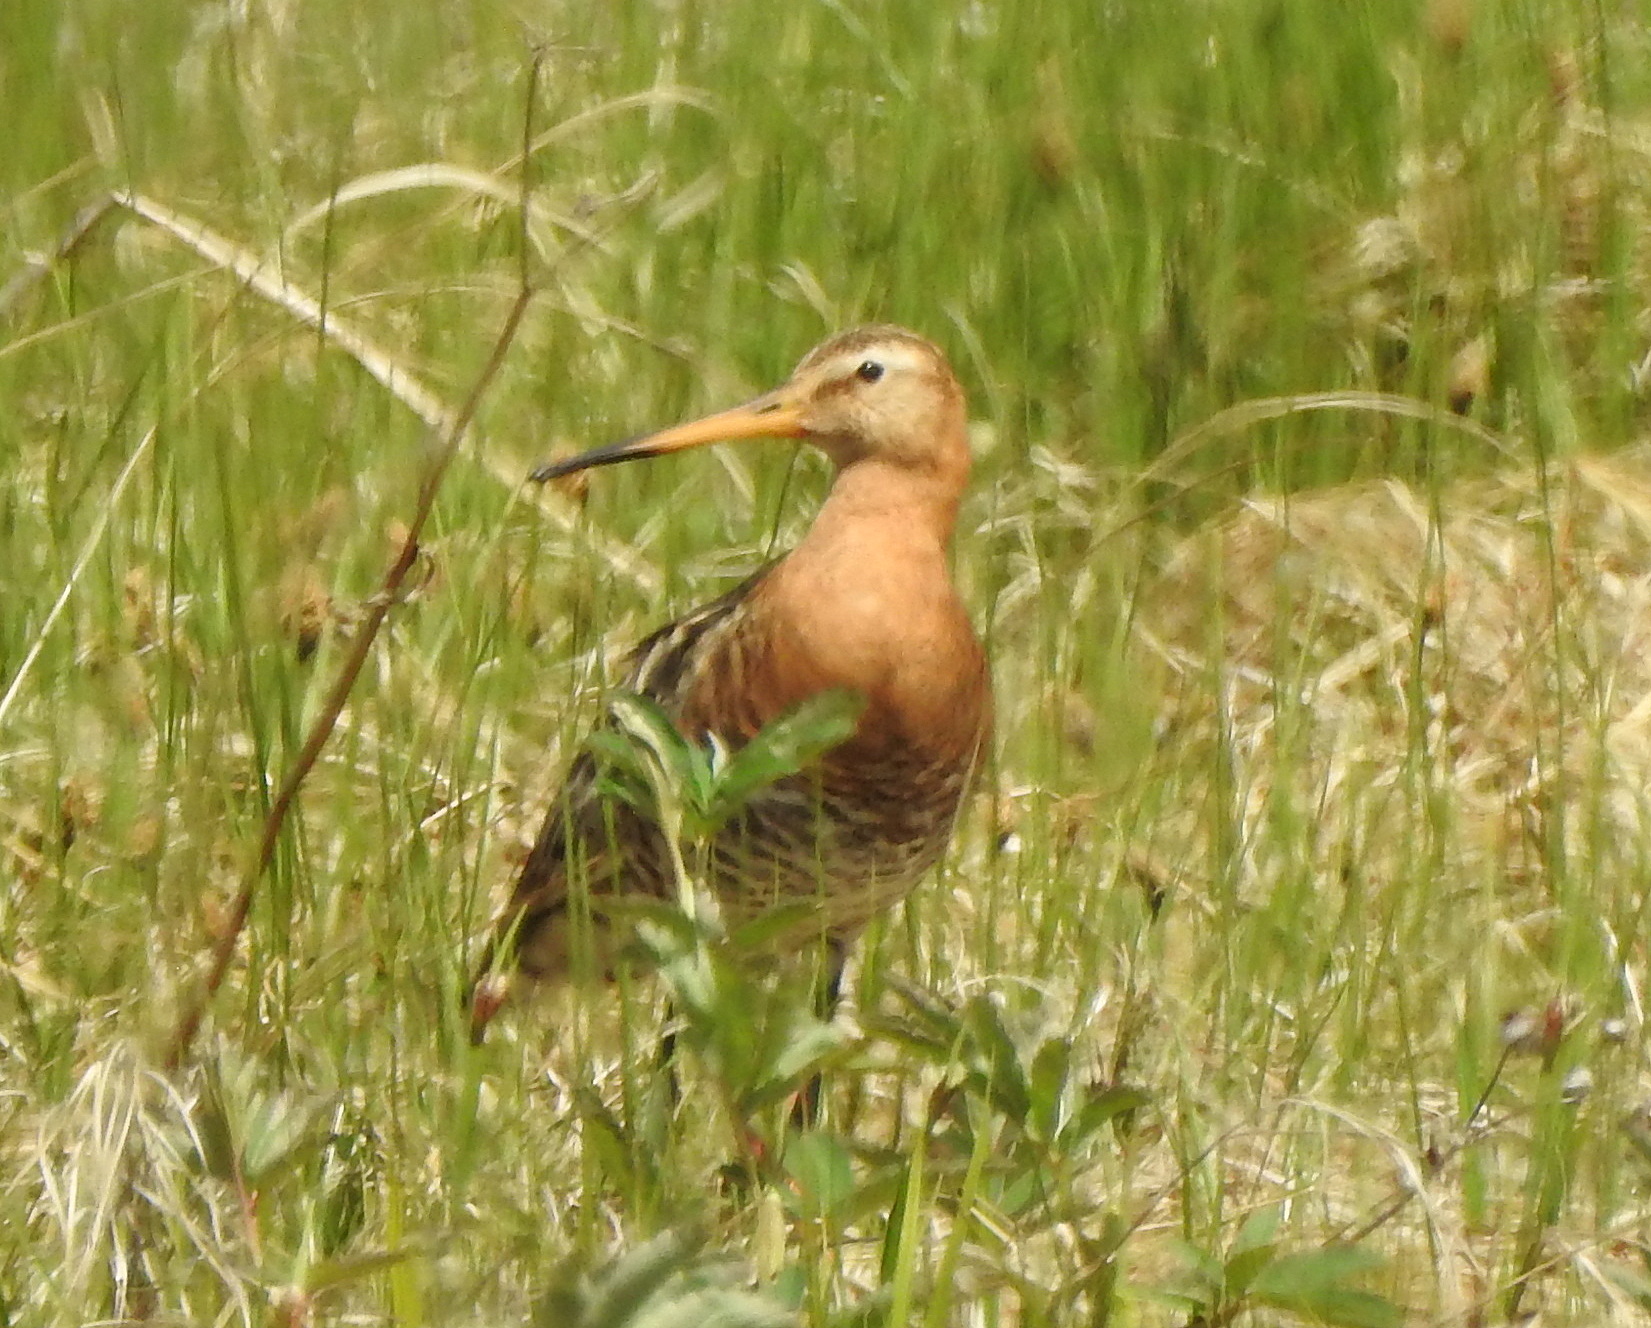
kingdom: Animalia
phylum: Chordata
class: Aves
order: Charadriiformes
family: Scolopacidae
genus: Limosa
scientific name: Limosa limosa
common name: Black-tailed godwit
